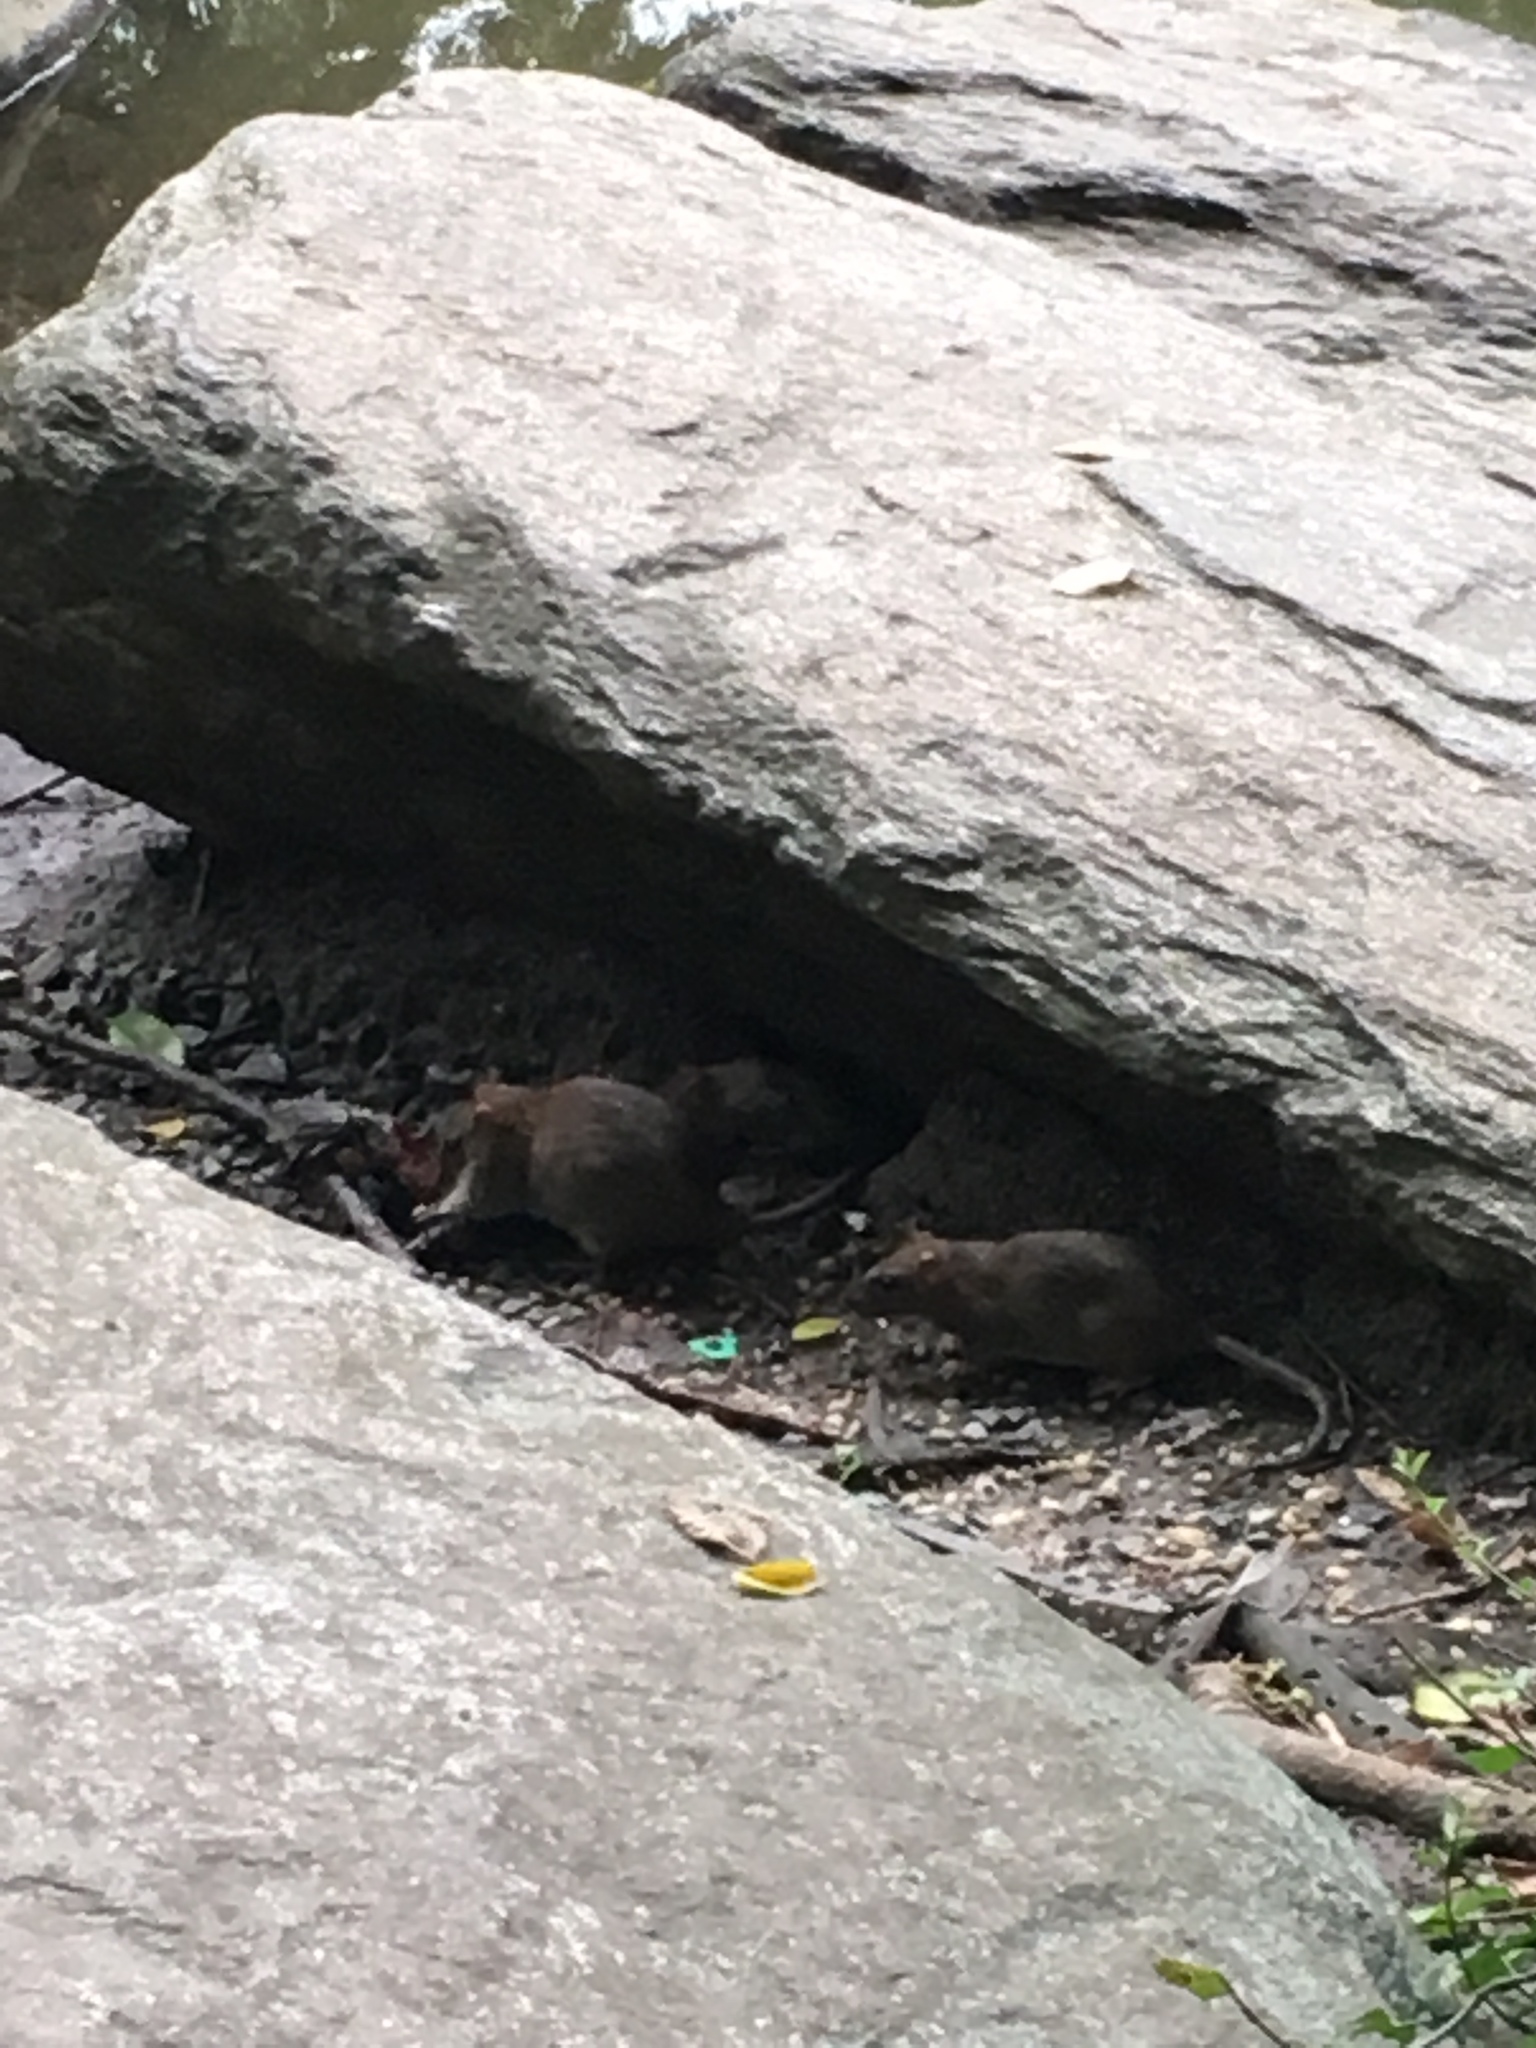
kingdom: Animalia
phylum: Chordata
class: Mammalia
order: Rodentia
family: Muridae
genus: Rattus
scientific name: Rattus norvegicus
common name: Brown rat
